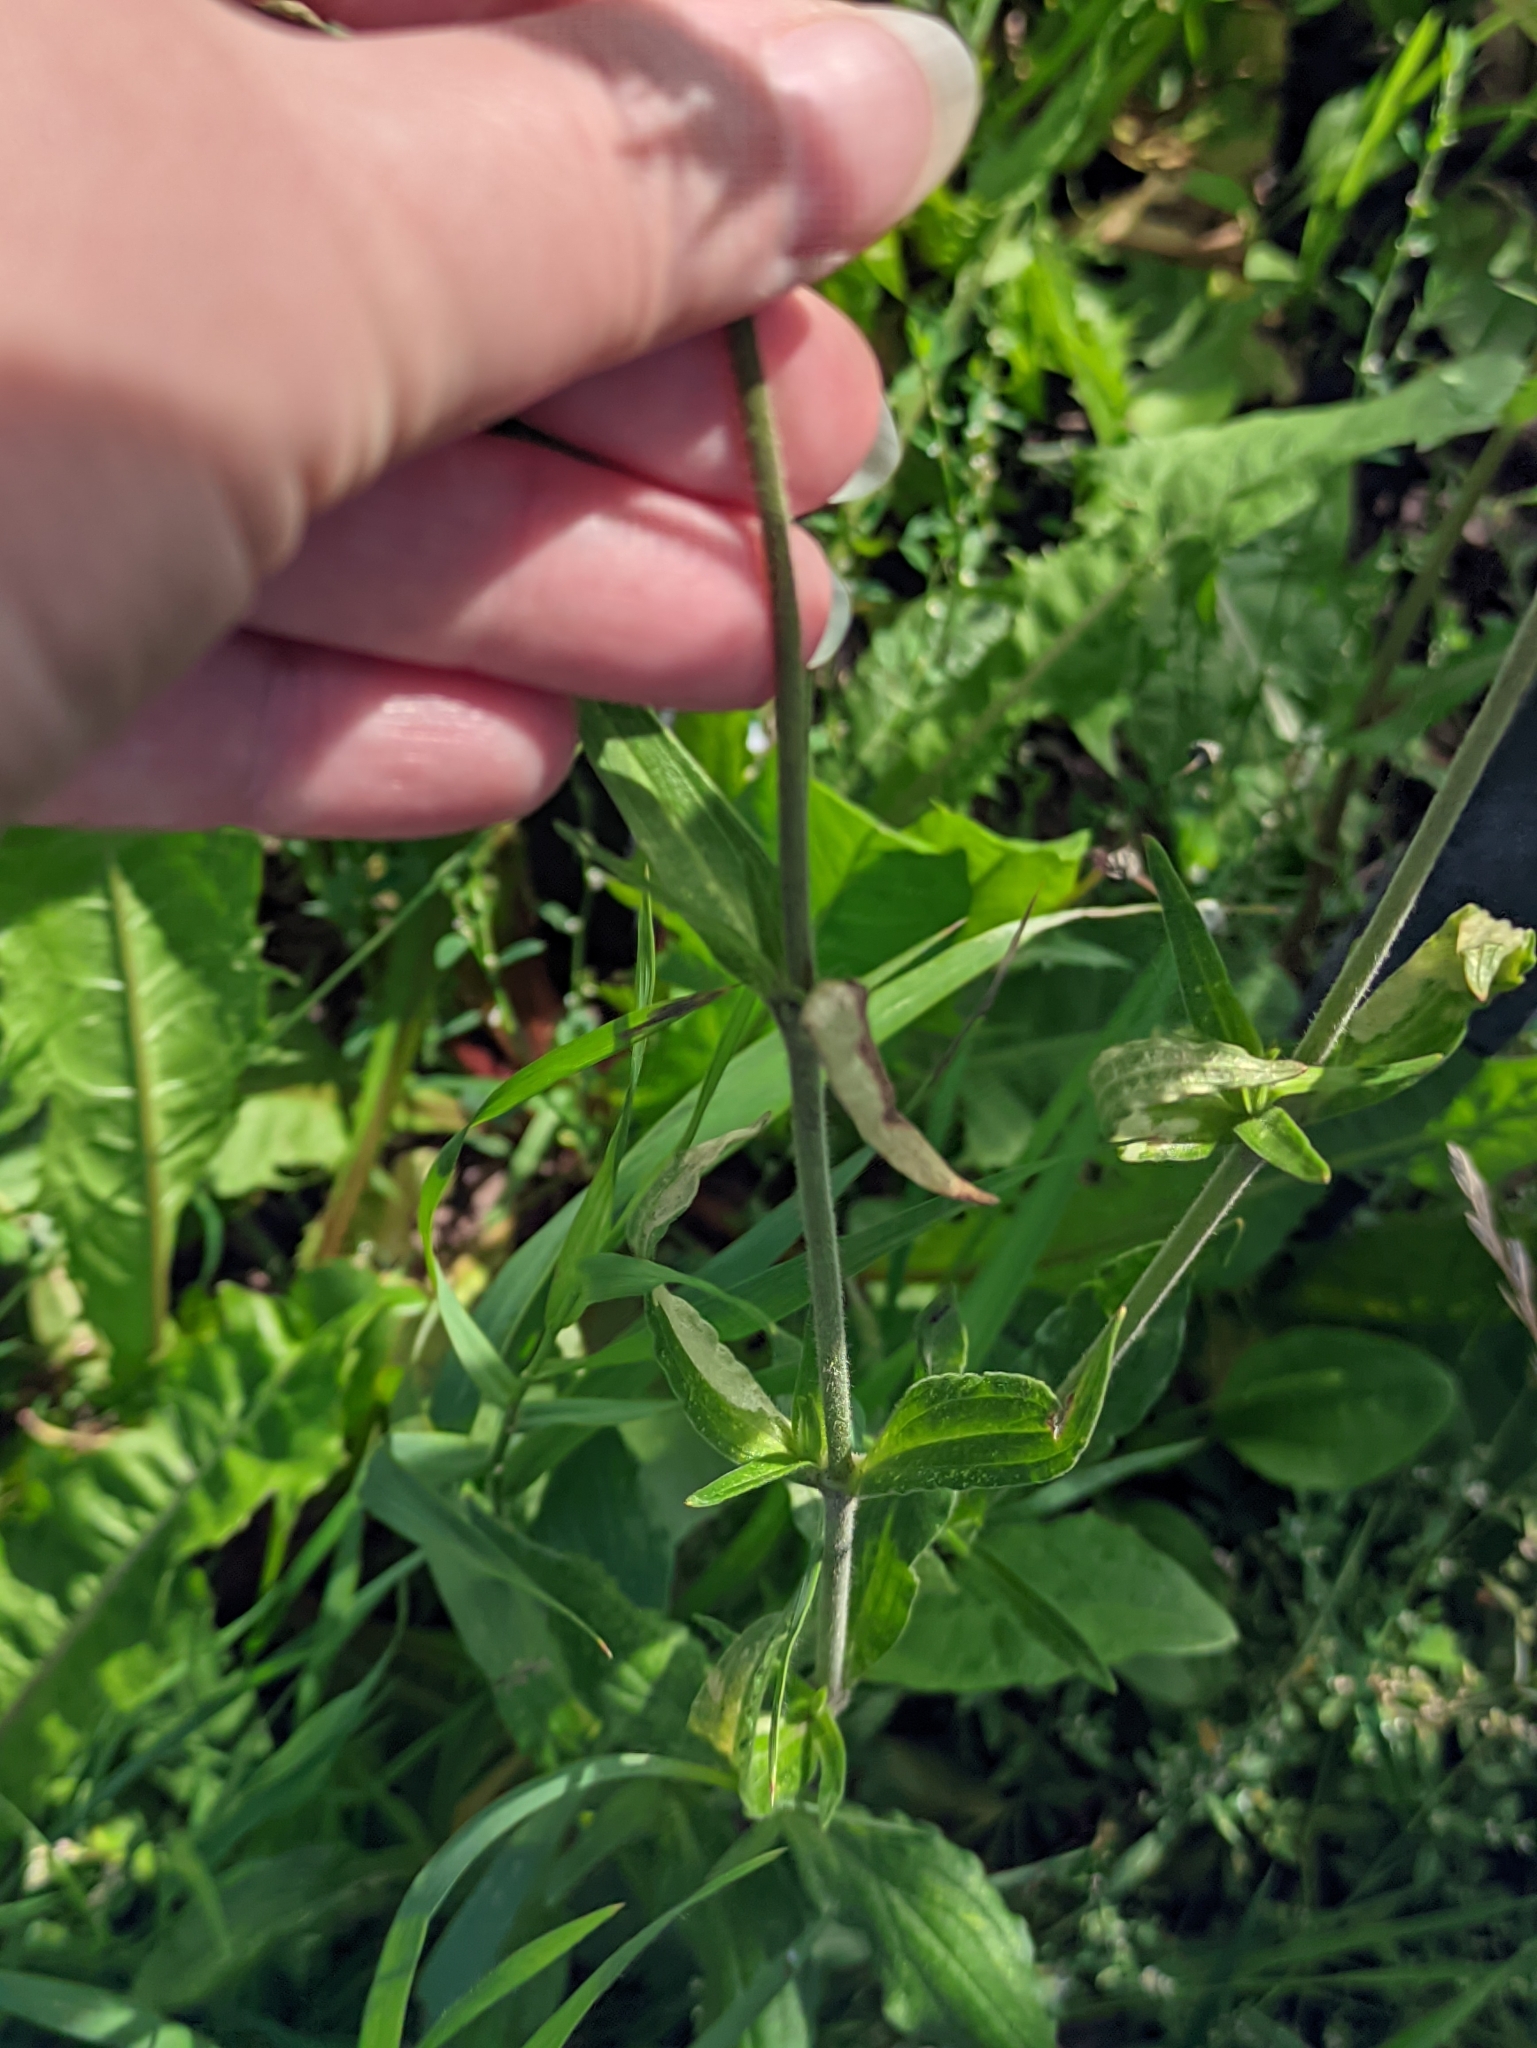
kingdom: Plantae
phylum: Tracheophyta
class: Magnoliopsida
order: Caryophyllales
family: Caryophyllaceae
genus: Silene
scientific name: Silene latifolia
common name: White campion
